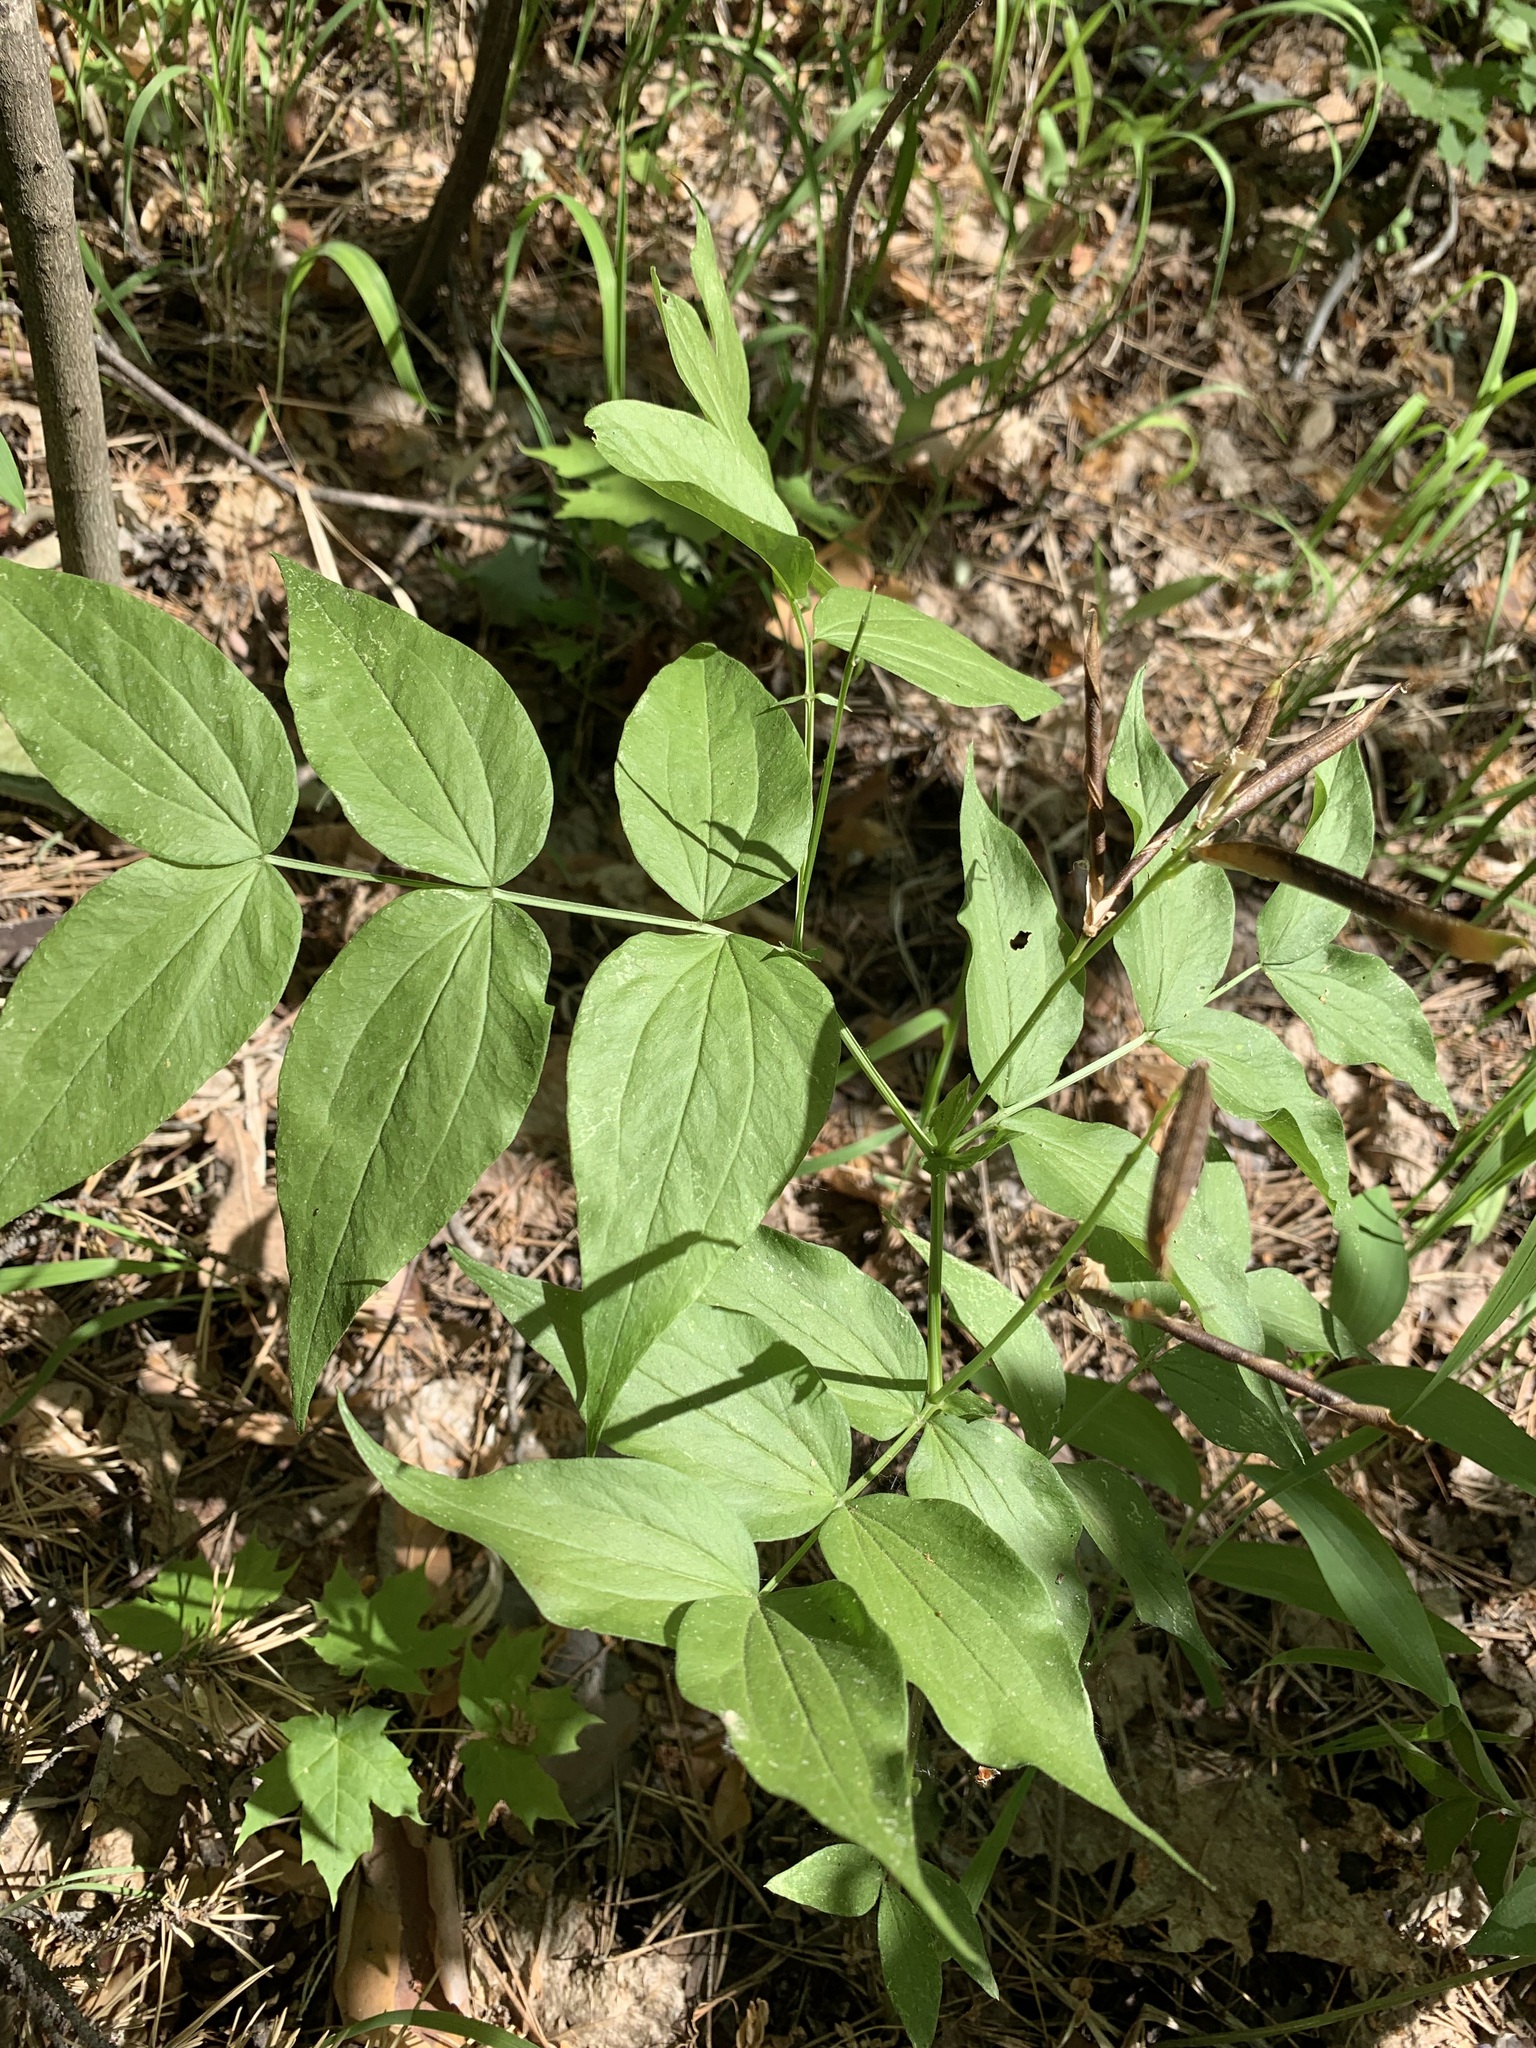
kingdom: Plantae
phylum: Tracheophyta
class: Magnoliopsida
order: Fabales
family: Fabaceae
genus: Lathyrus
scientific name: Lathyrus vernus
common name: Spring pea
